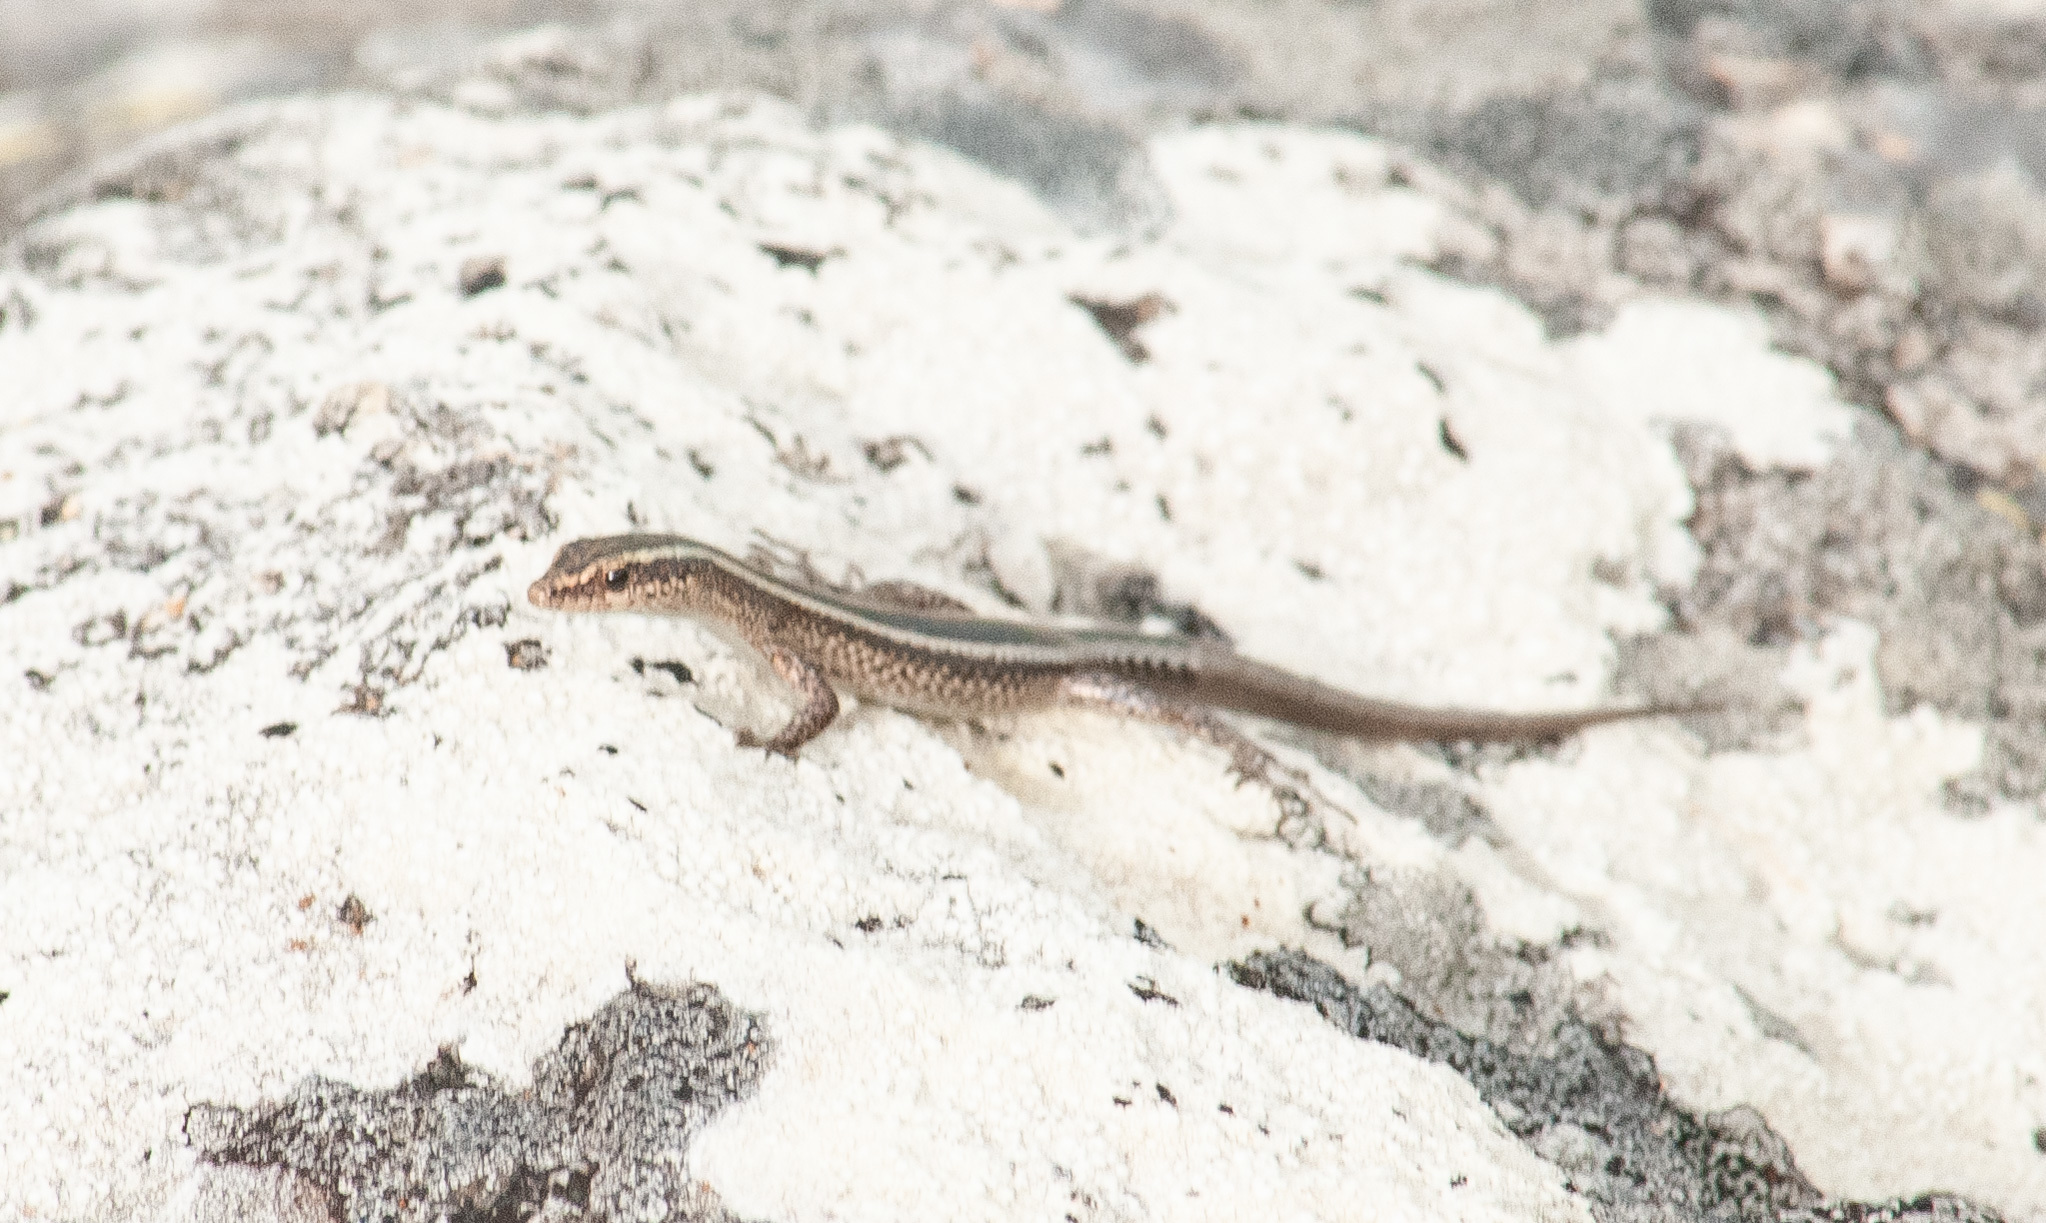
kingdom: Animalia
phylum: Chordata
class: Squamata
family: Scincidae
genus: Cryptoblepharus
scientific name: Cryptoblepharus pulcher
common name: Elegant snake-eyed skink
